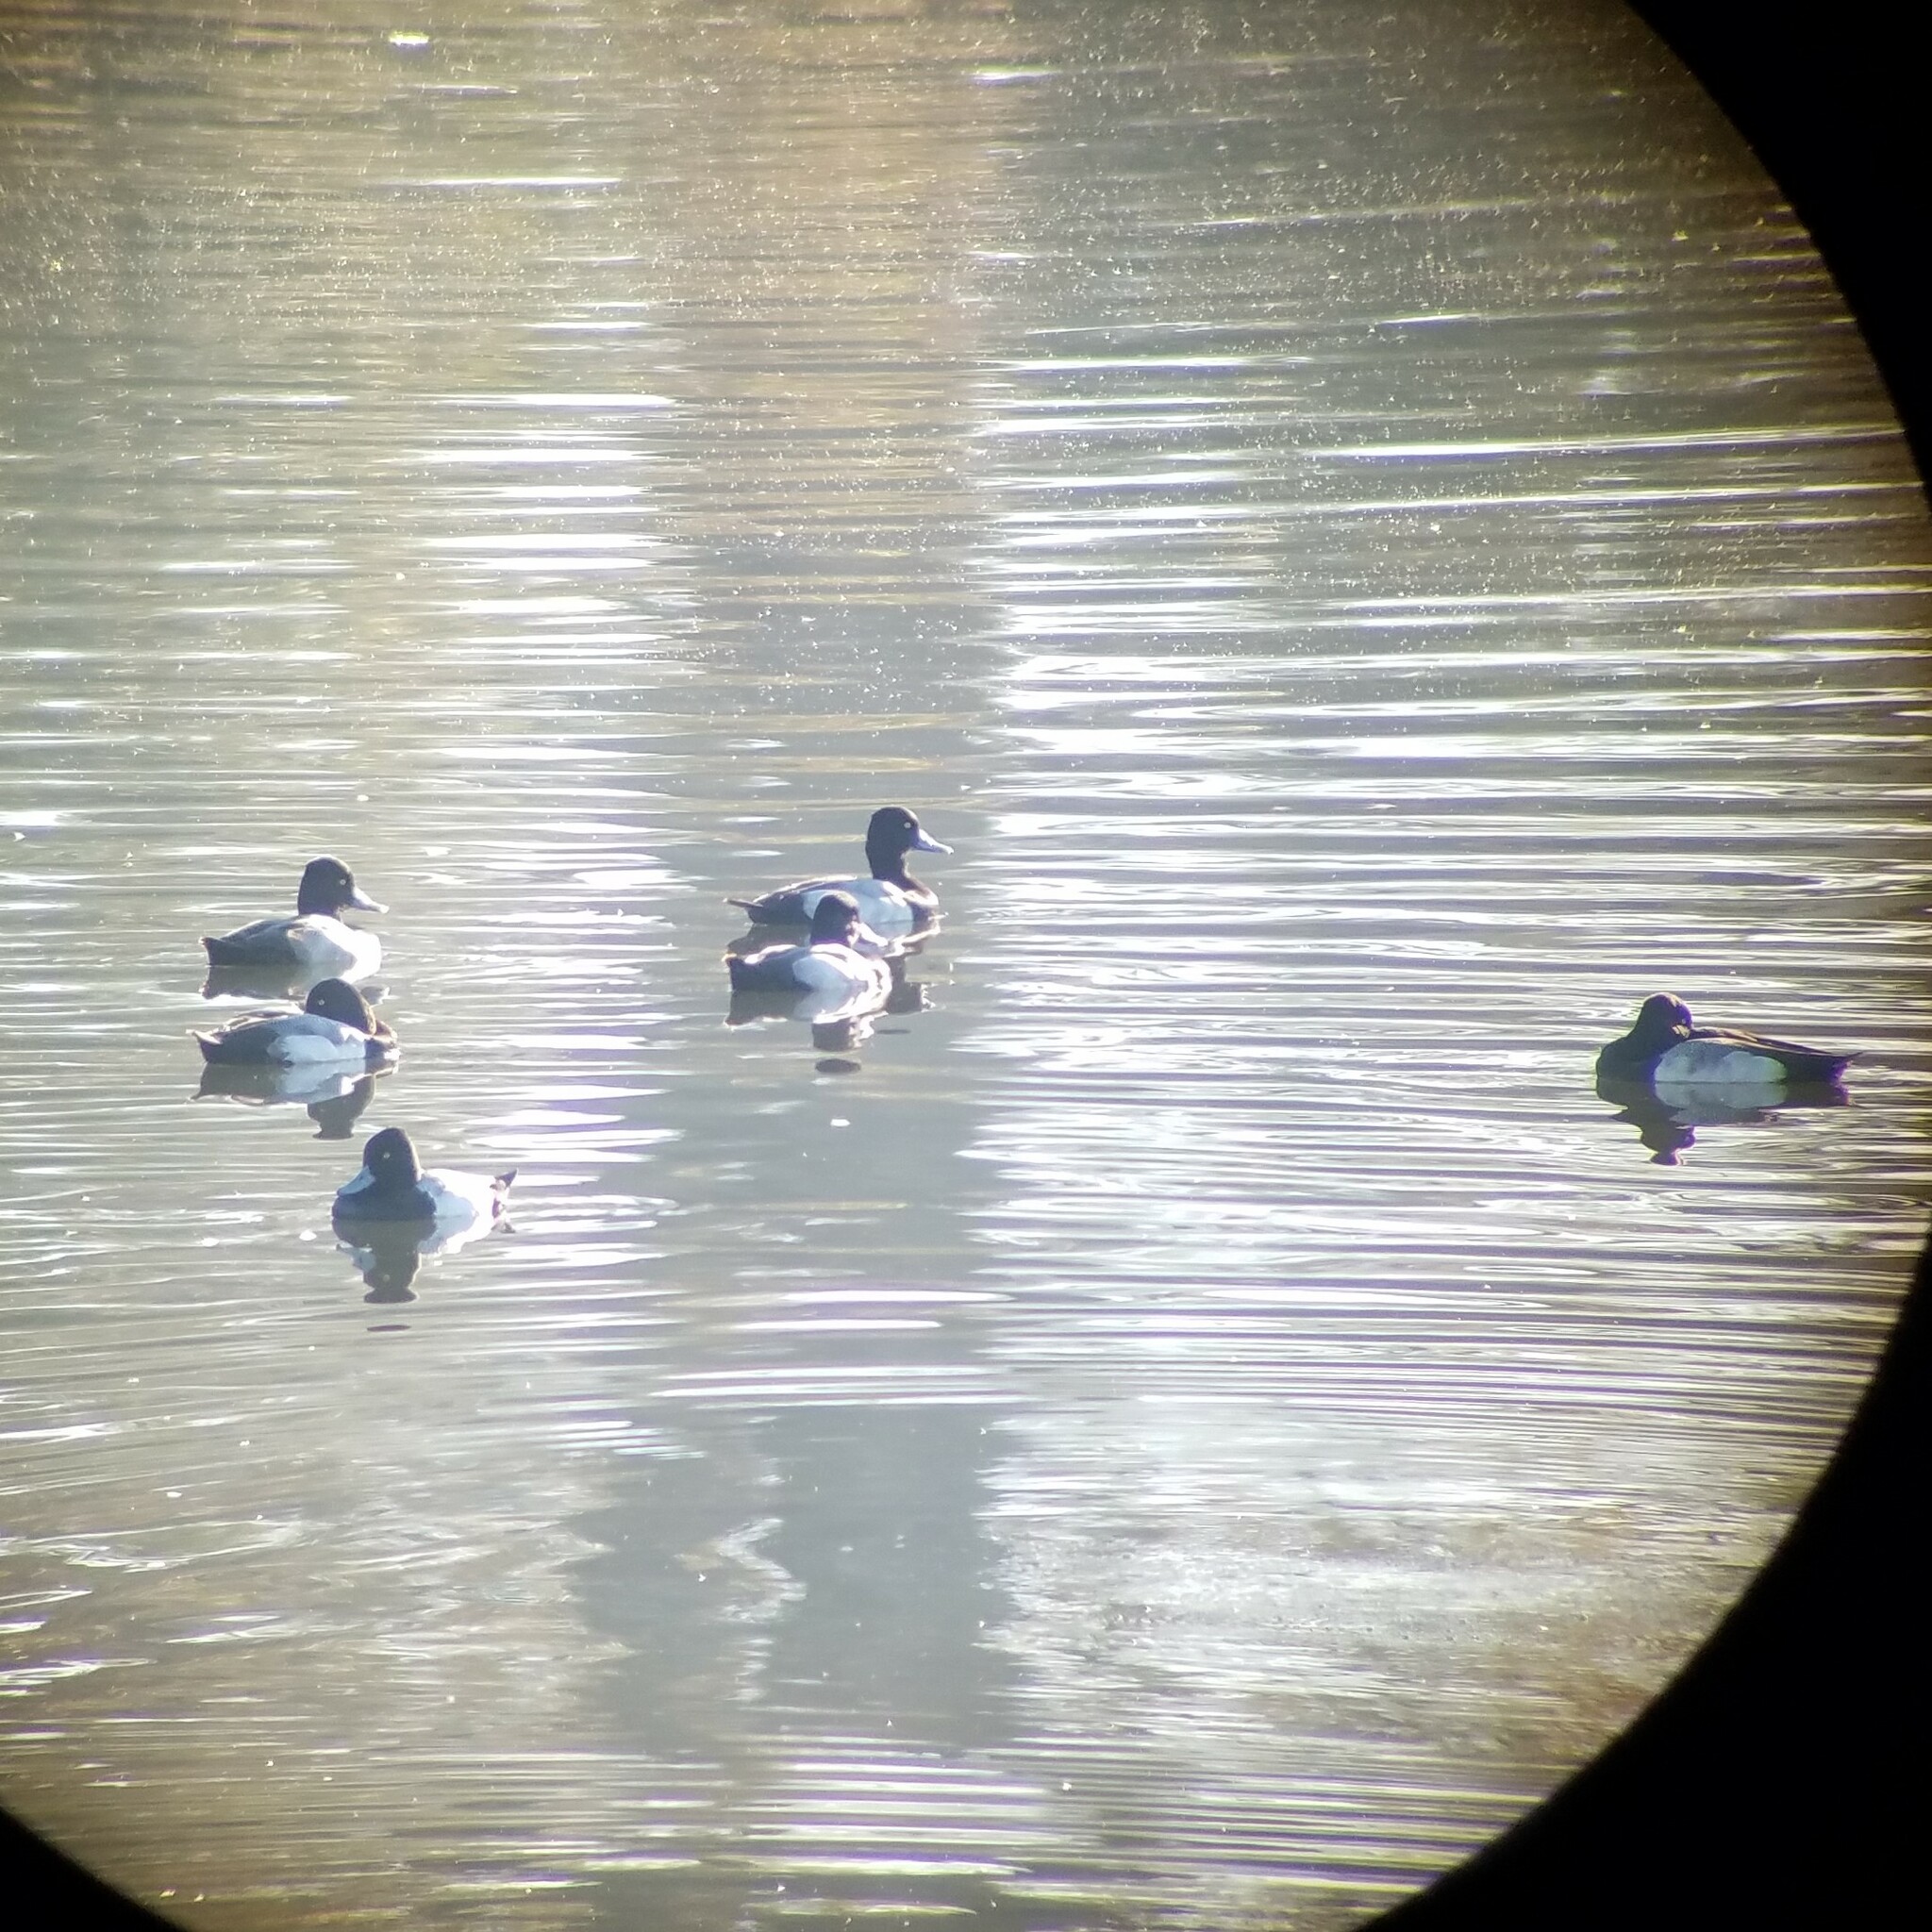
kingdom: Animalia
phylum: Chordata
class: Aves
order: Anseriformes
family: Anatidae
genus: Aythya
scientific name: Aythya affinis
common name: Lesser scaup
